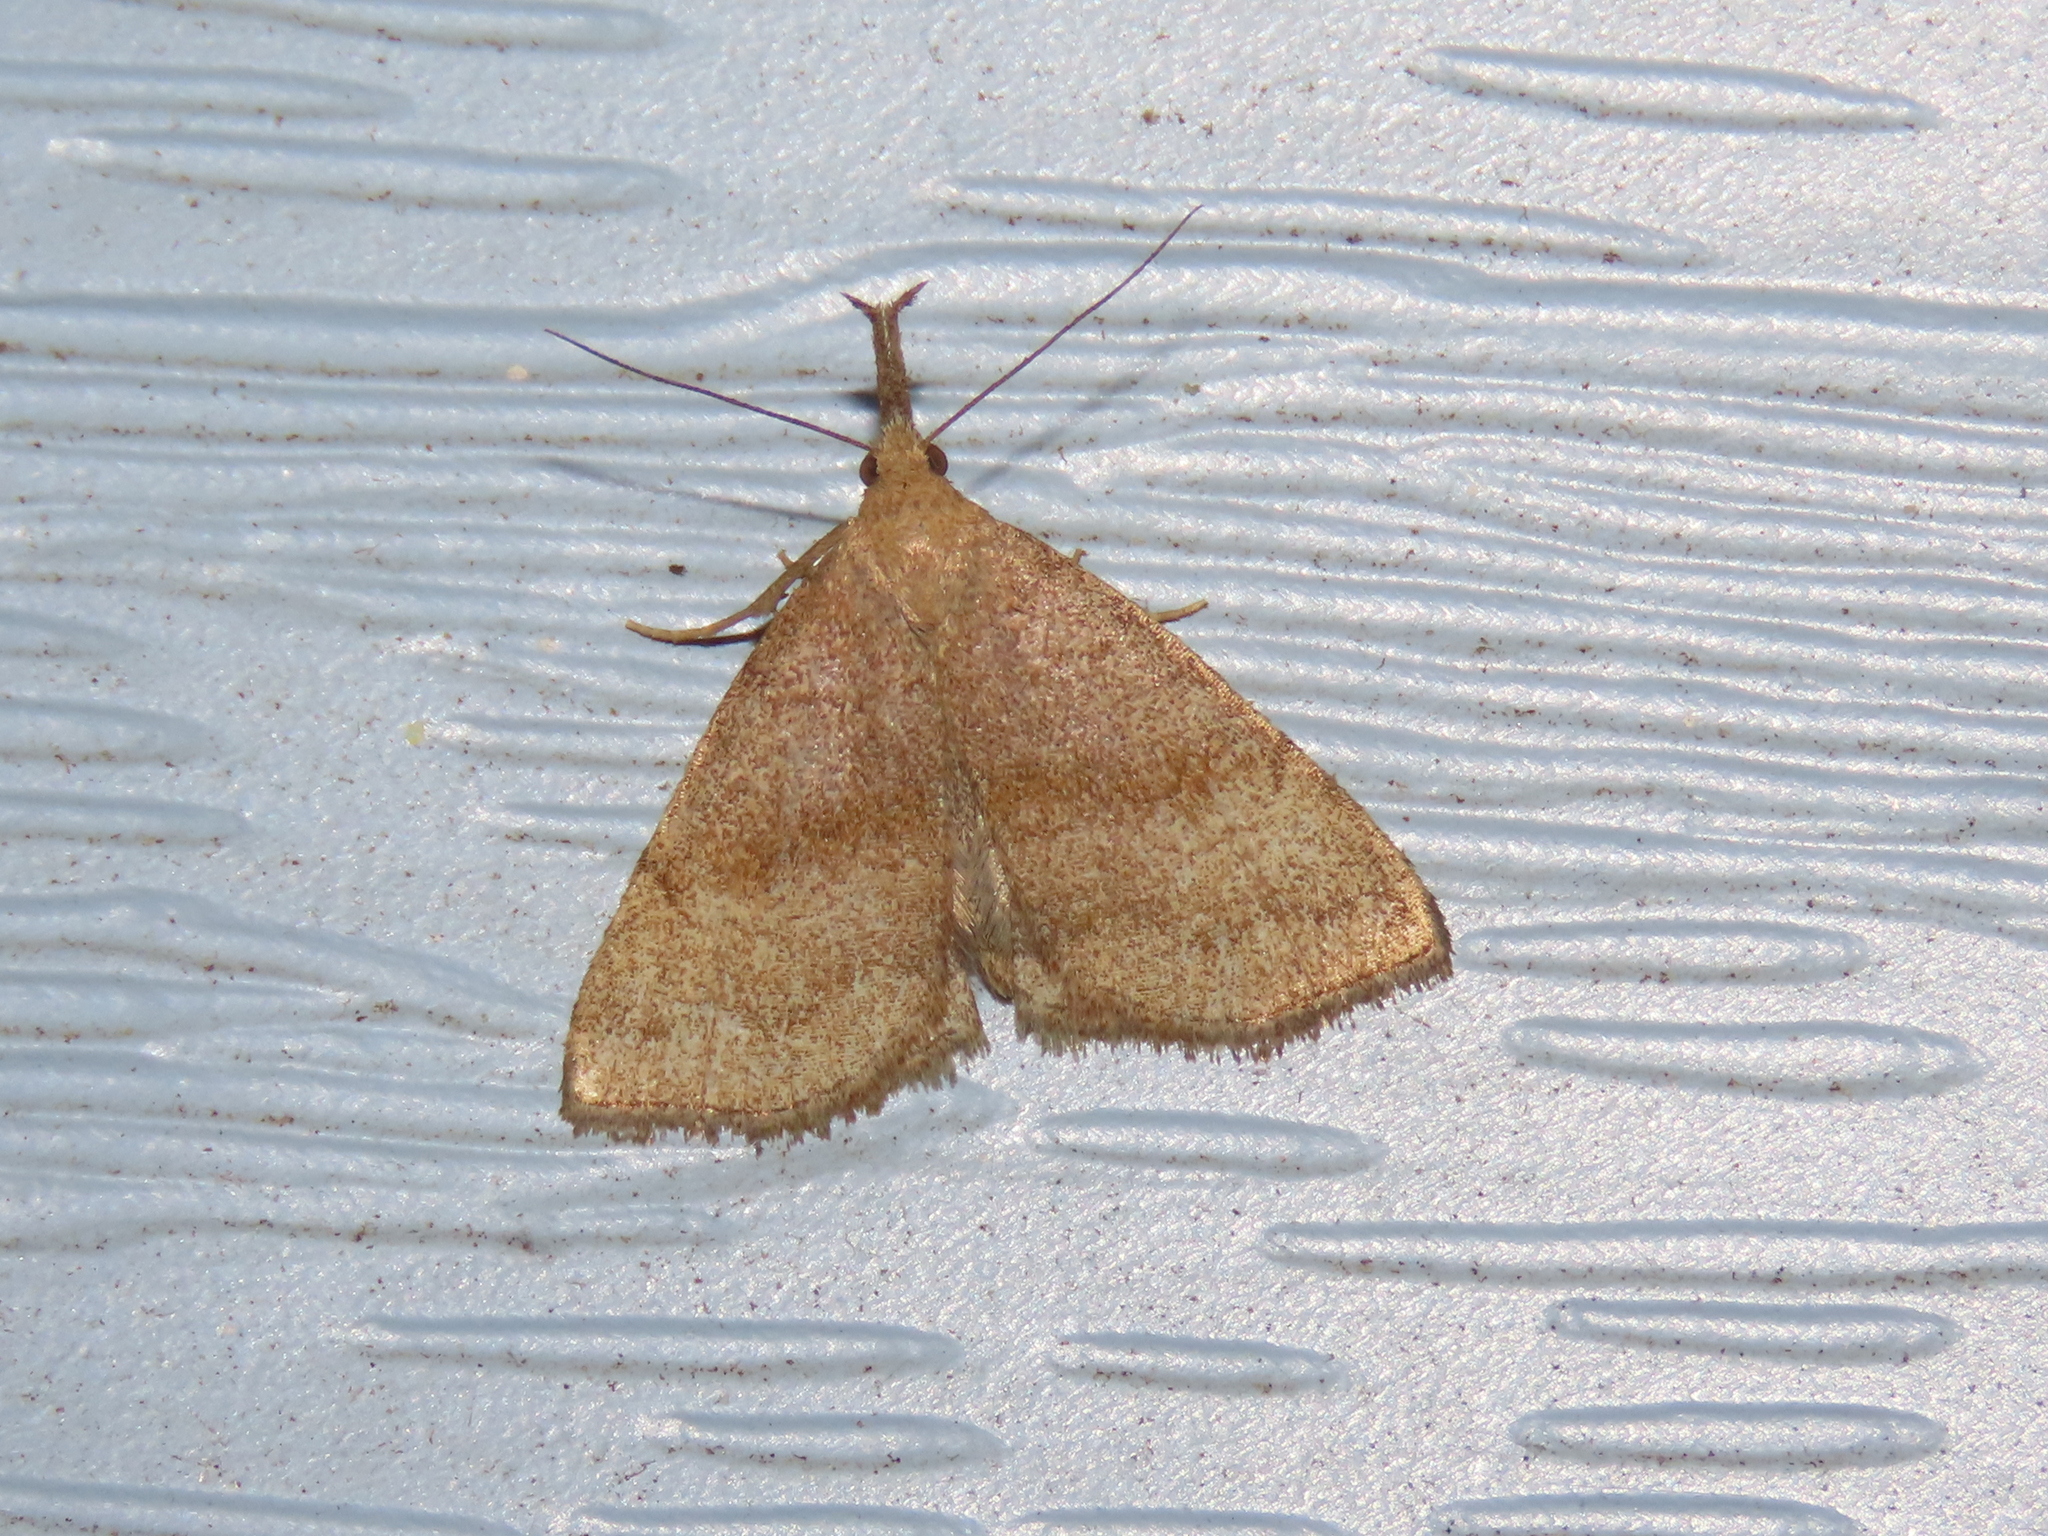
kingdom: Animalia
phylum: Arthropoda
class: Insecta
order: Lepidoptera
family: Erebidae
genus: Phalaenostola
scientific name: Phalaenostola metonalis
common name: Pale phalaenostola moth
